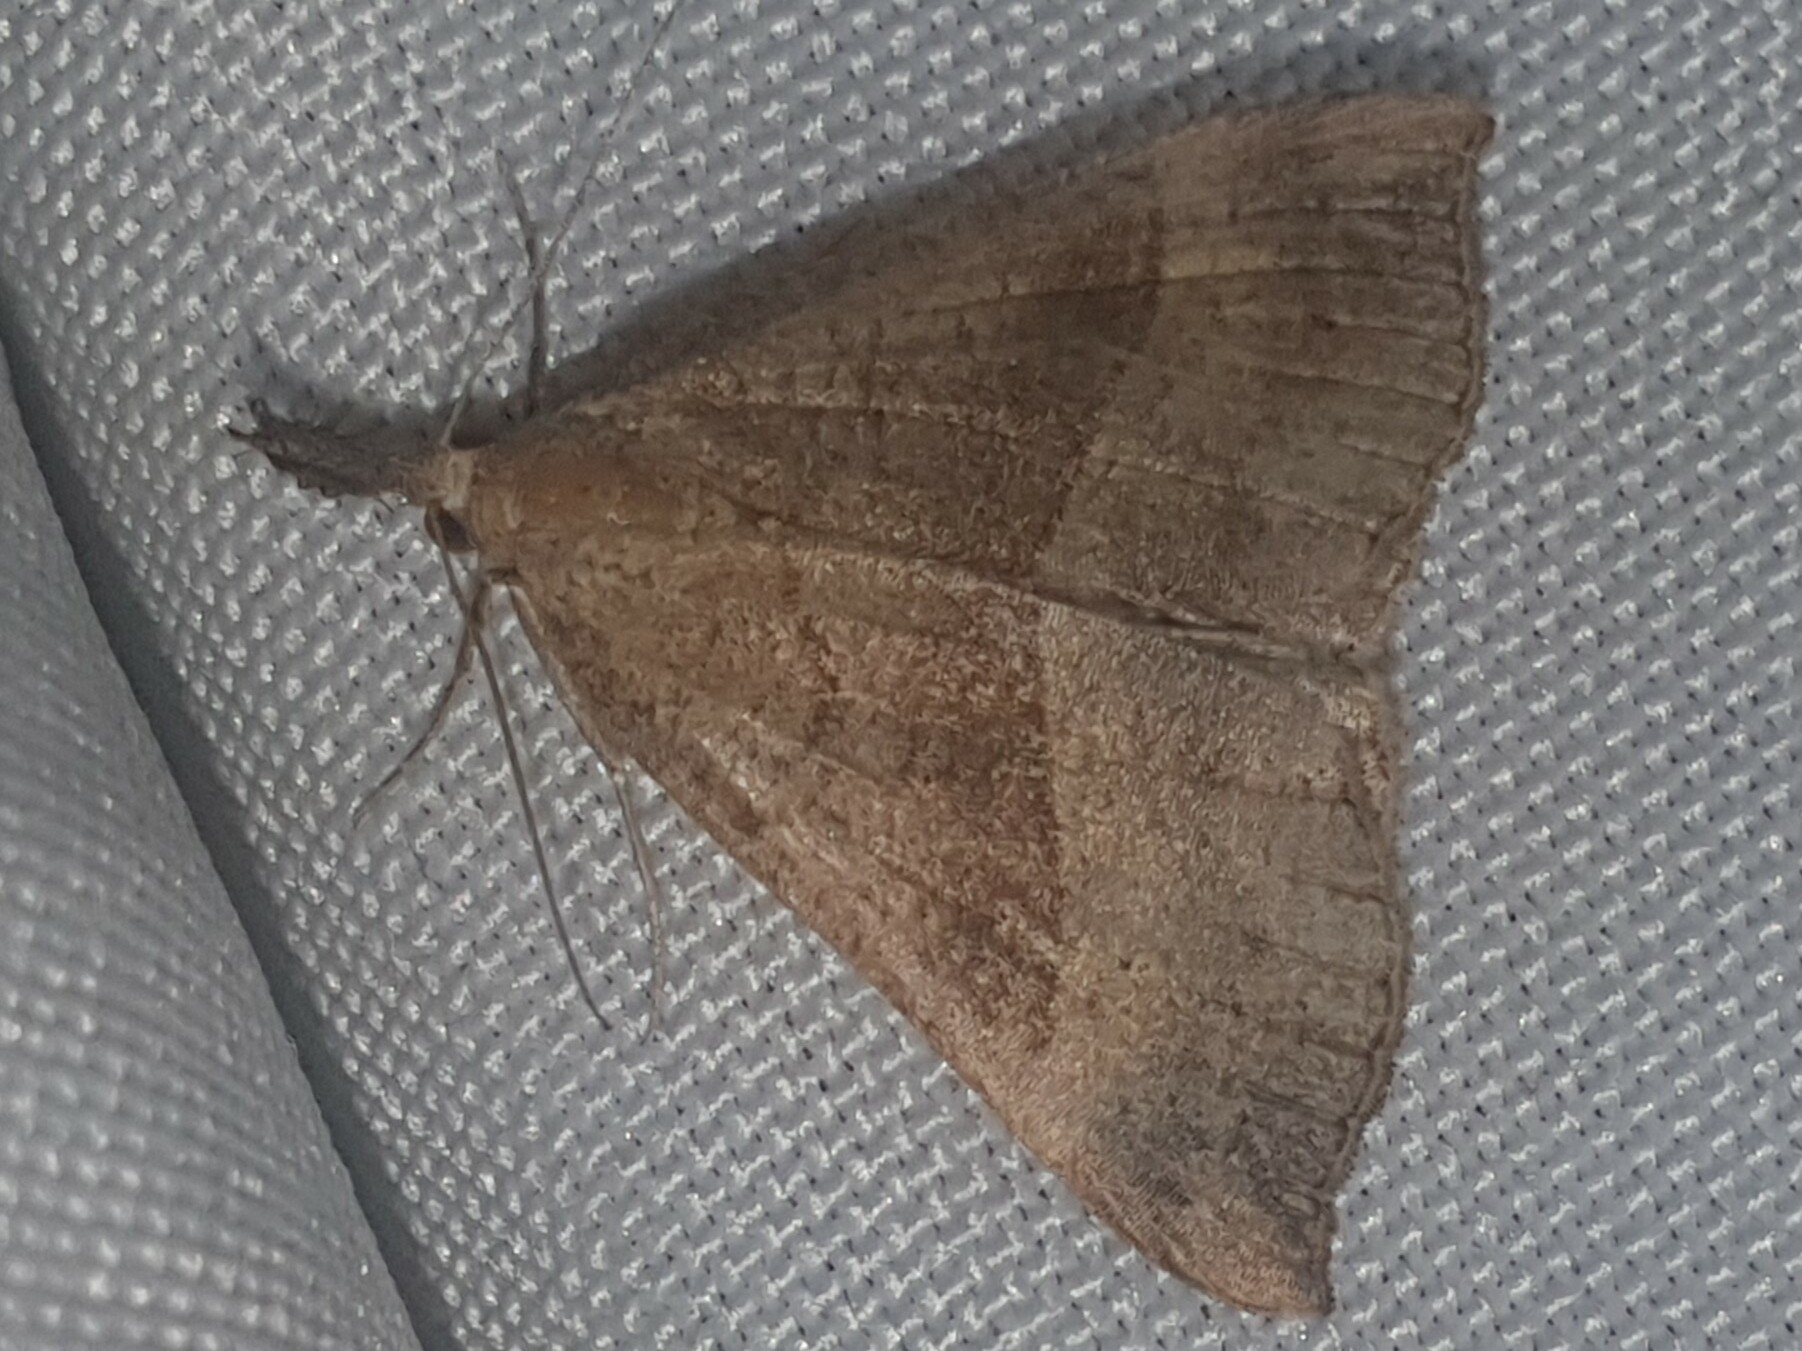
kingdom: Animalia
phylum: Arthropoda
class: Insecta
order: Lepidoptera
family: Erebidae
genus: Hypena
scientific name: Hypena proboscidalis
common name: Snout
